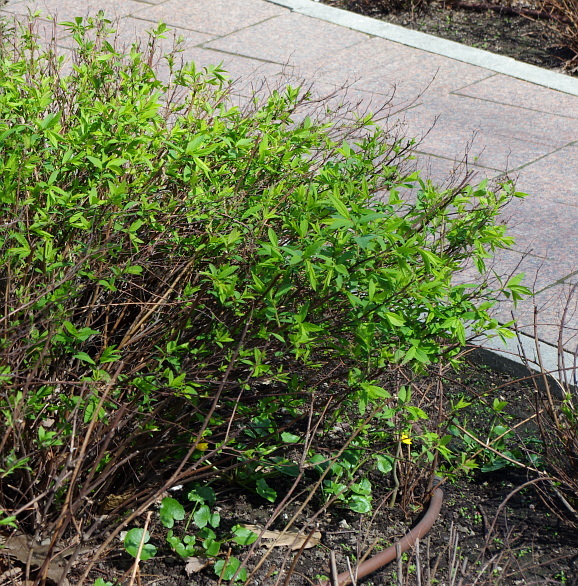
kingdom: Plantae
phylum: Tracheophyta
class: Magnoliopsida
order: Ranunculales
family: Ranunculaceae
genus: Ficaria
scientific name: Ficaria verna
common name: Lesser celandine
